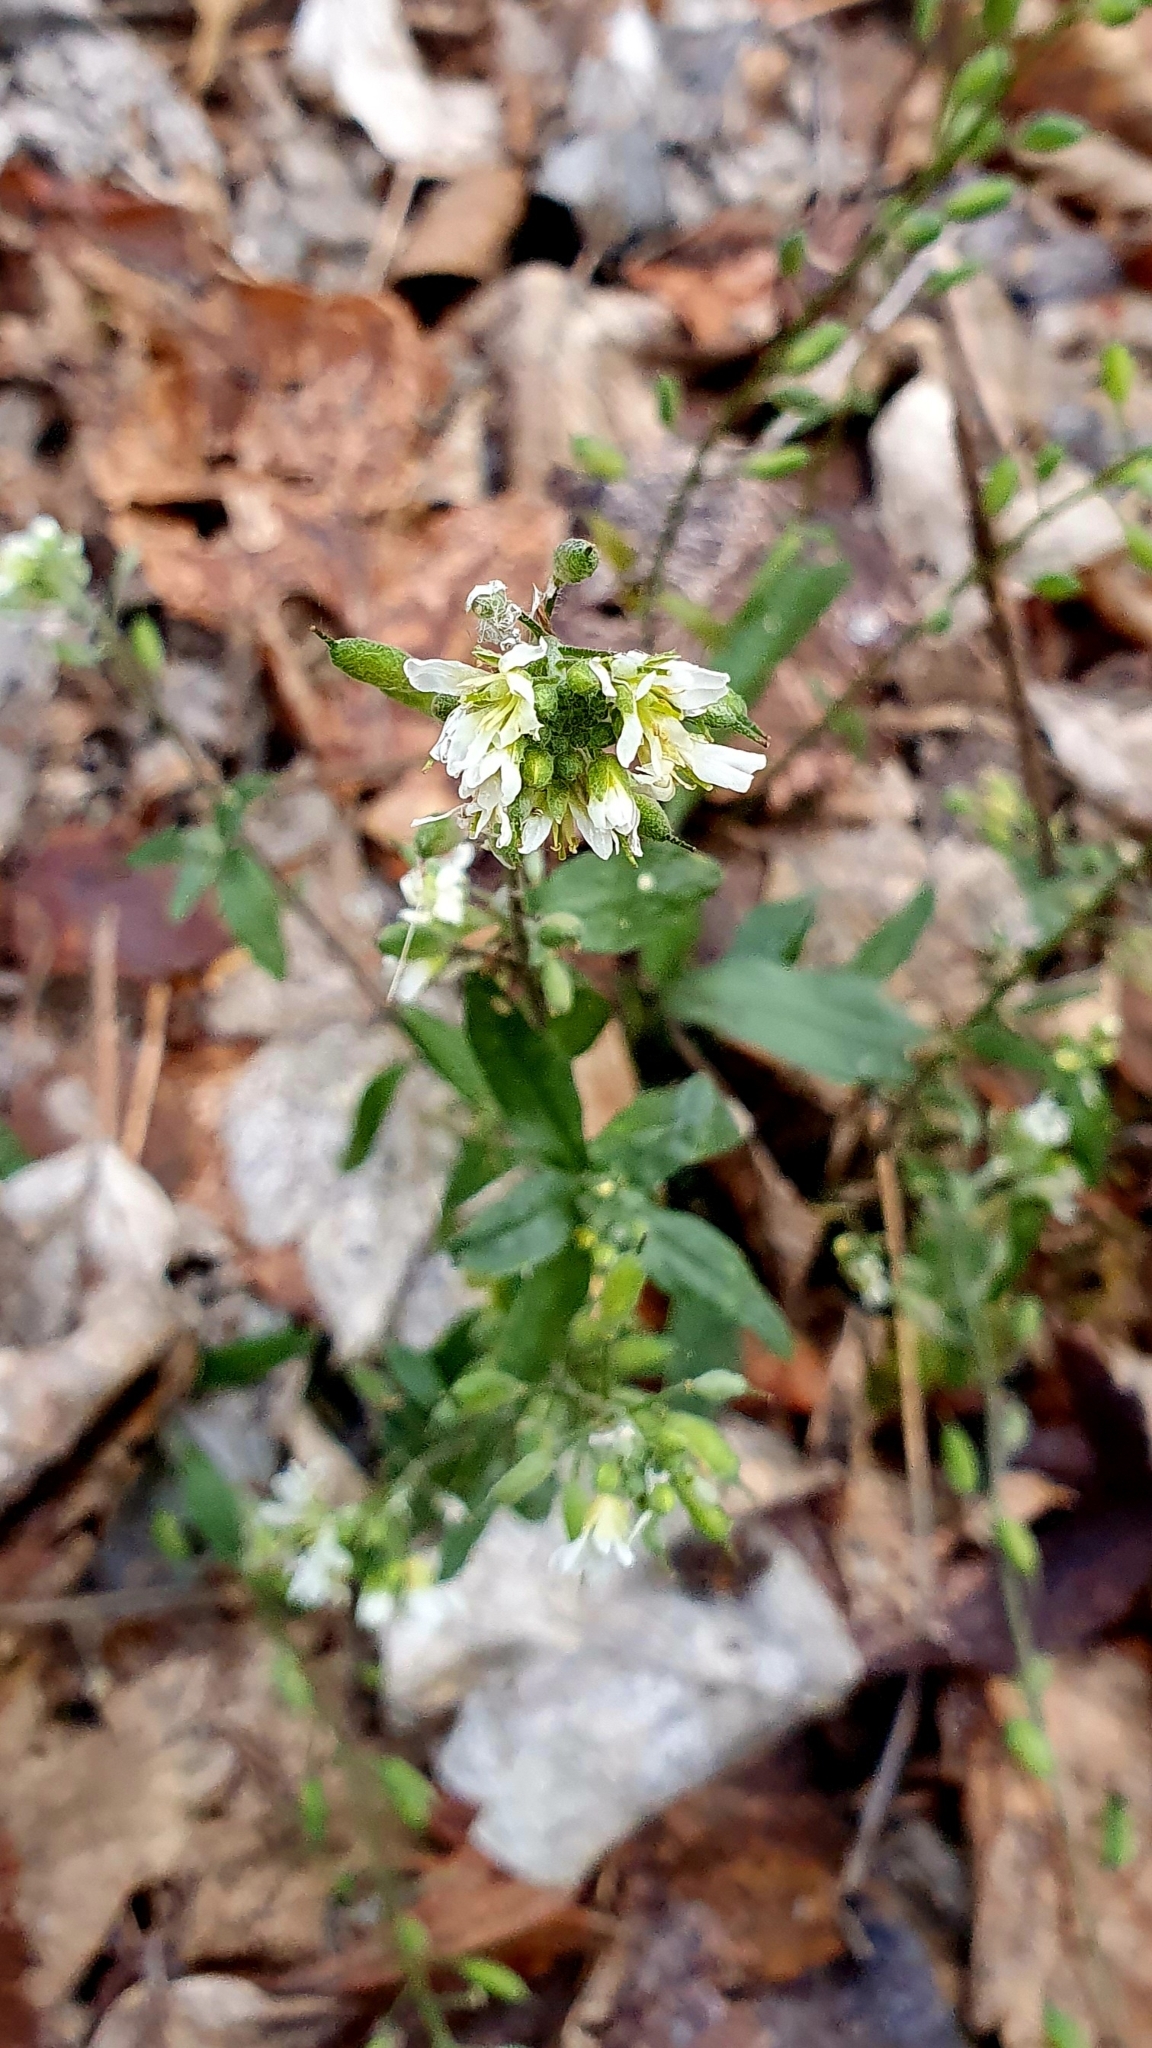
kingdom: Plantae
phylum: Tracheophyta
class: Magnoliopsida
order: Brassicales
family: Brassicaceae
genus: Berteroa
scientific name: Berteroa incana
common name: Hoary alison
